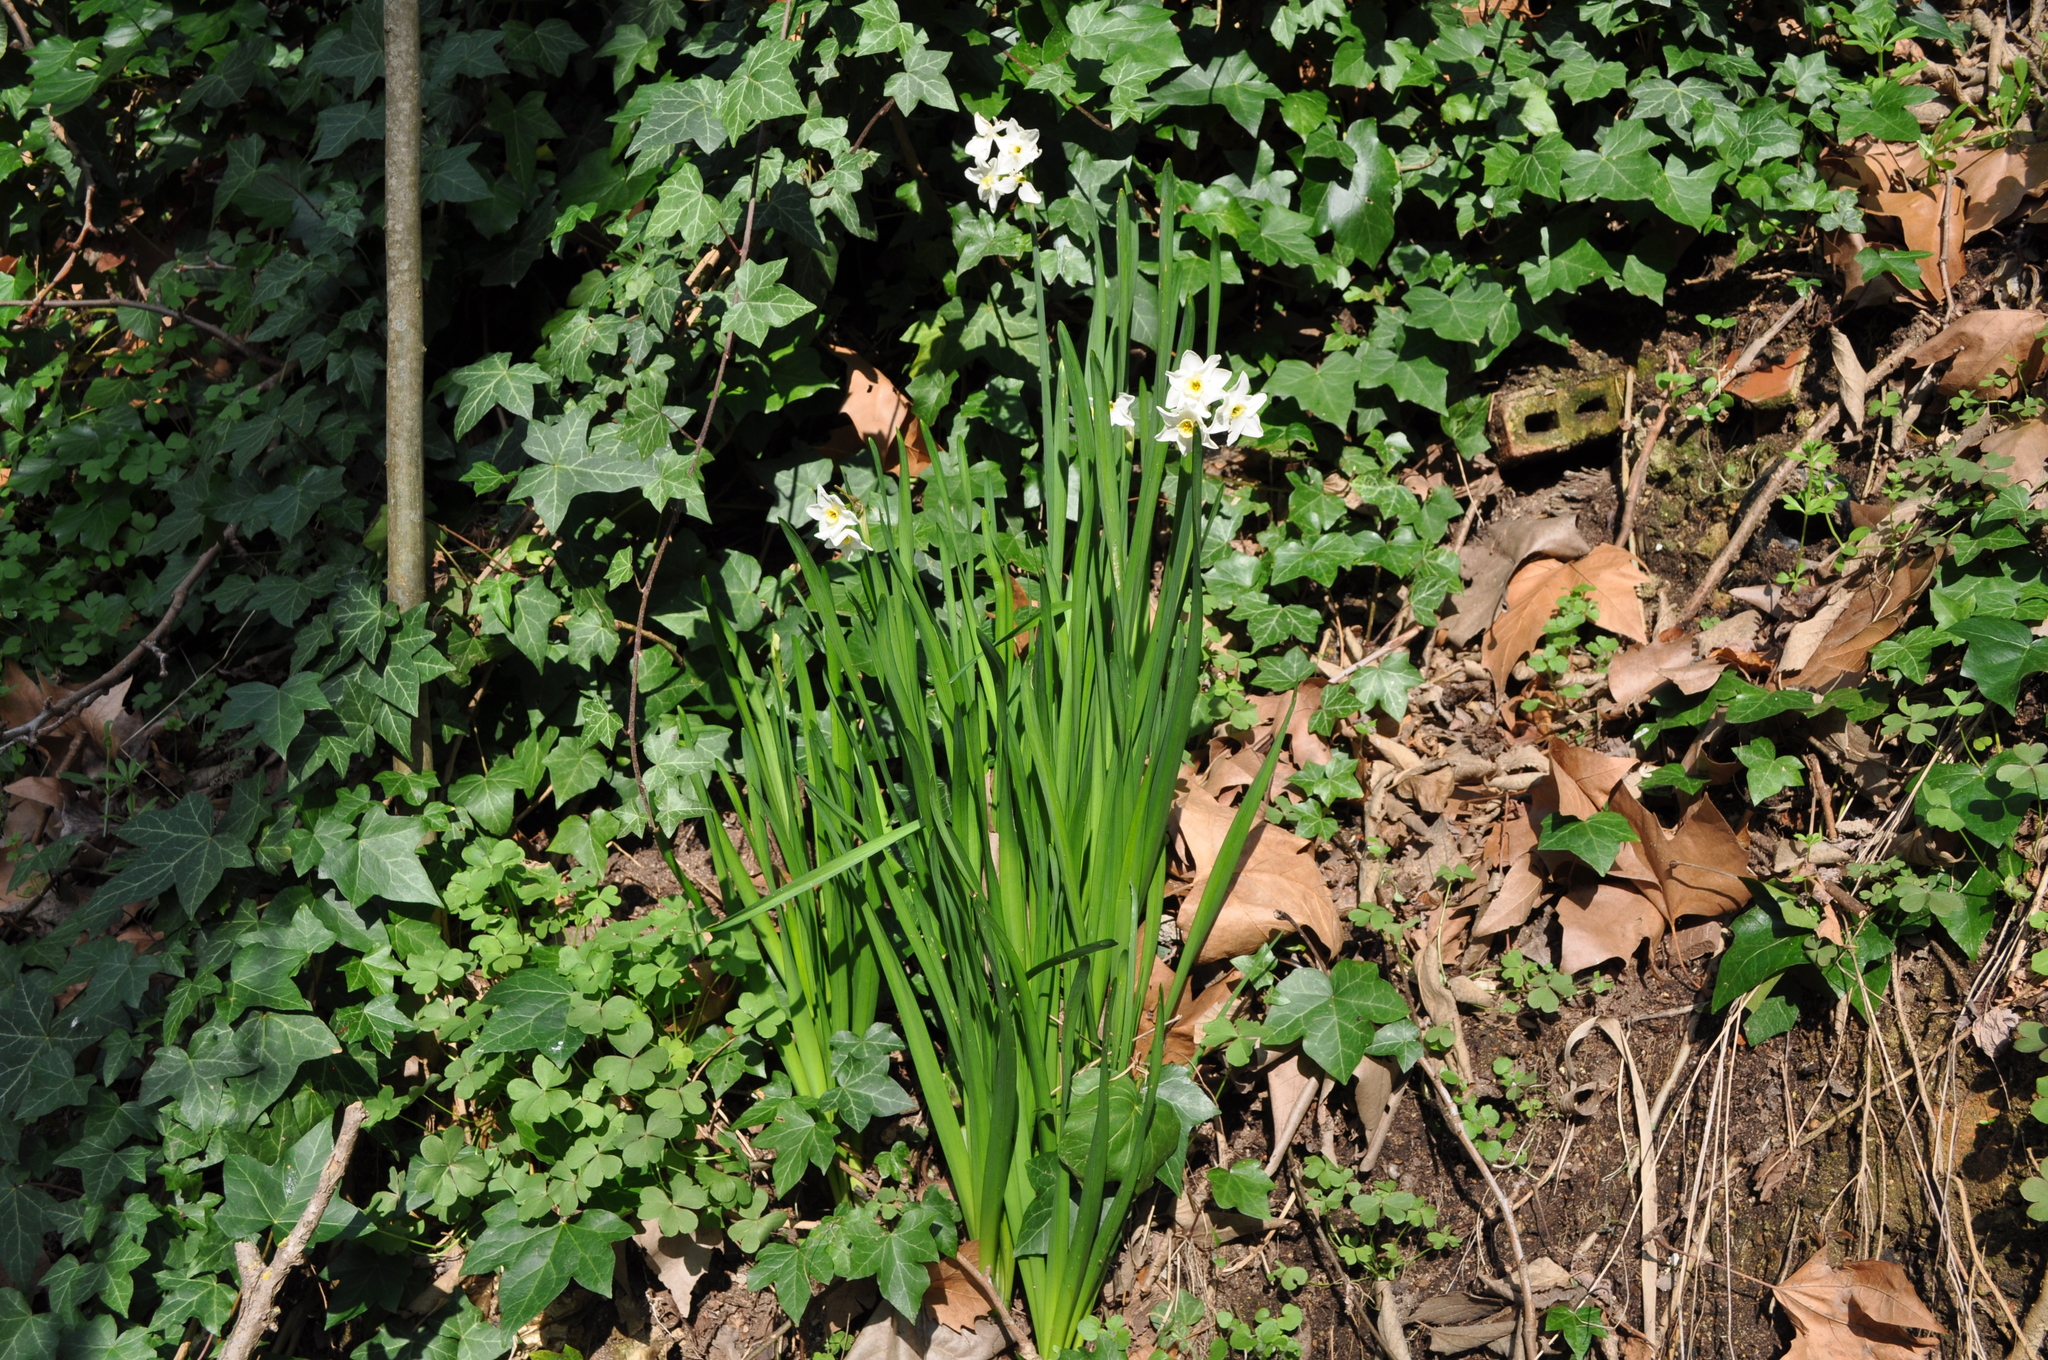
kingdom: Plantae
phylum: Tracheophyta
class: Liliopsida
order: Asparagales
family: Amaryllidaceae
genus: Narcissus
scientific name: Narcissus tazetta
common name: Bunch-flowered daffodil
